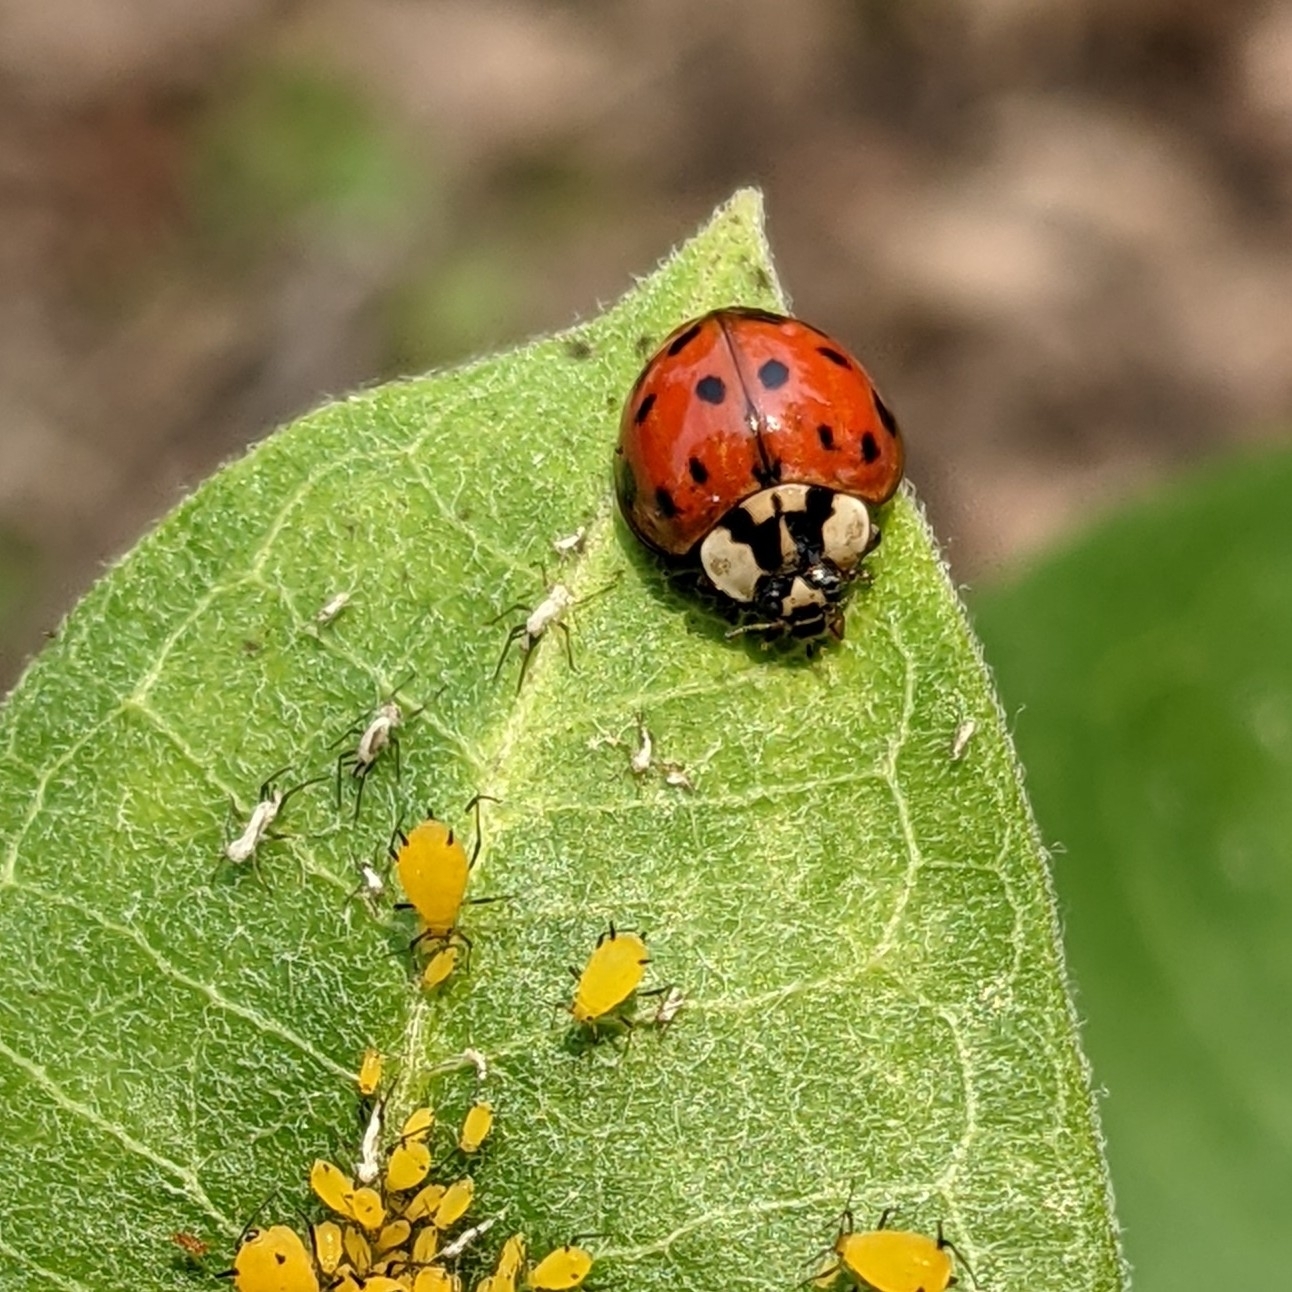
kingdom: Animalia
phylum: Arthropoda
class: Insecta
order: Coleoptera
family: Coccinellidae
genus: Harmonia
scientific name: Harmonia axyridis
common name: Harlequin ladybird
